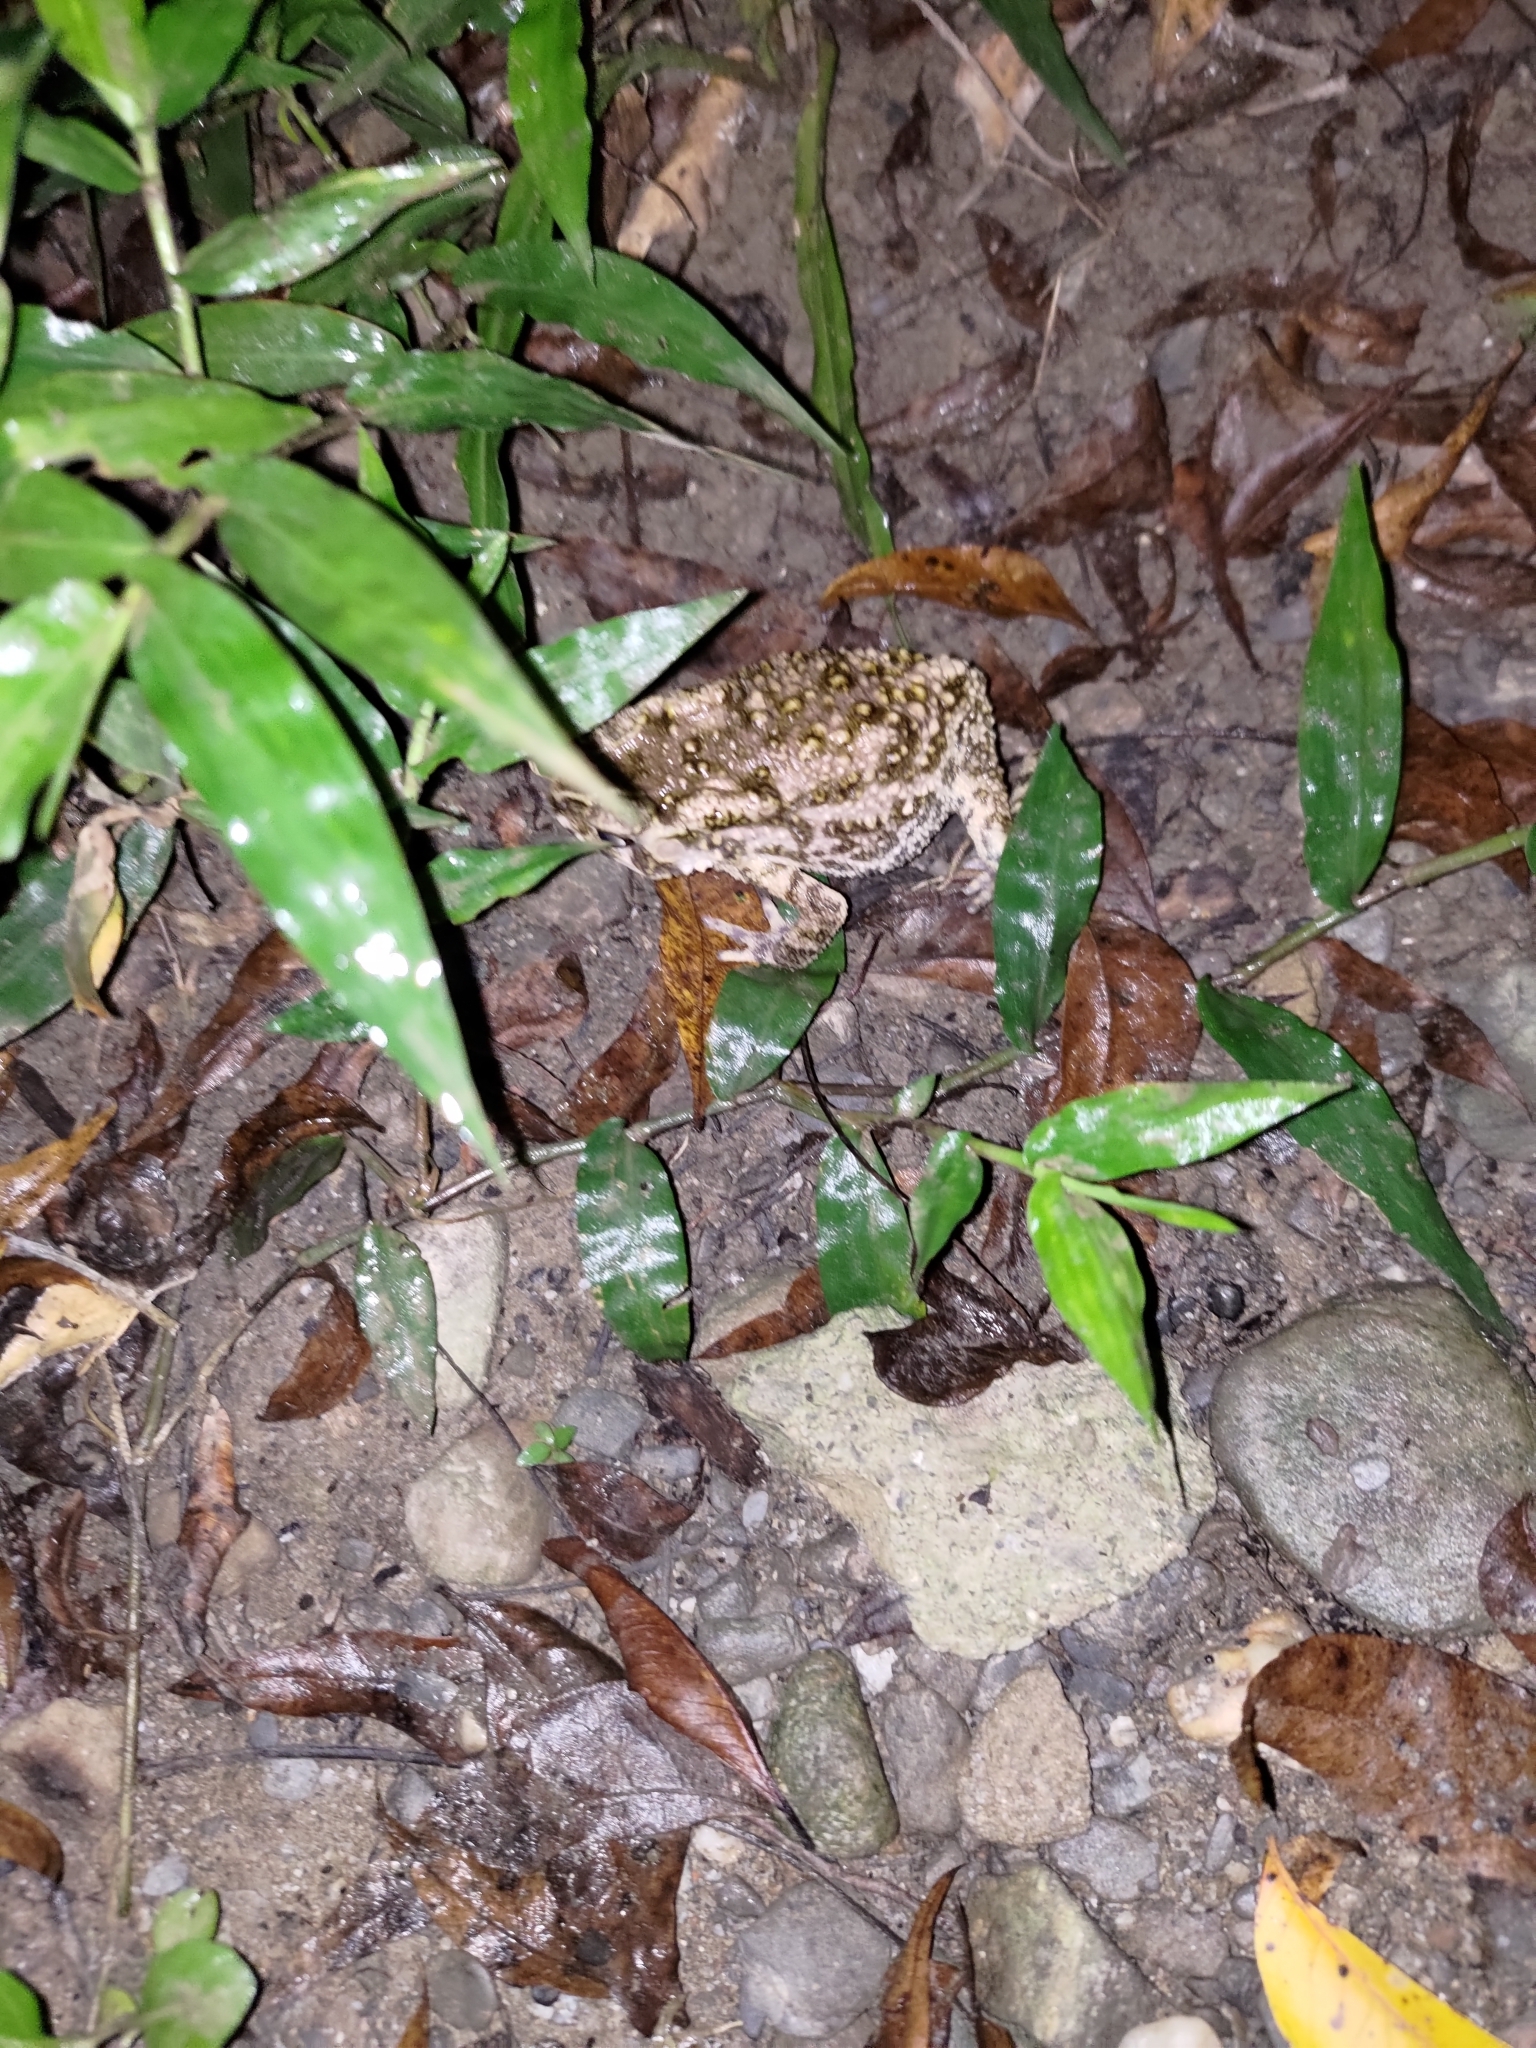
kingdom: Animalia
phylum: Chordata
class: Amphibia
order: Anura
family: Bufonidae
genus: Duttaphrynus
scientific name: Duttaphrynus melanostictus
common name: Common sunda toad
